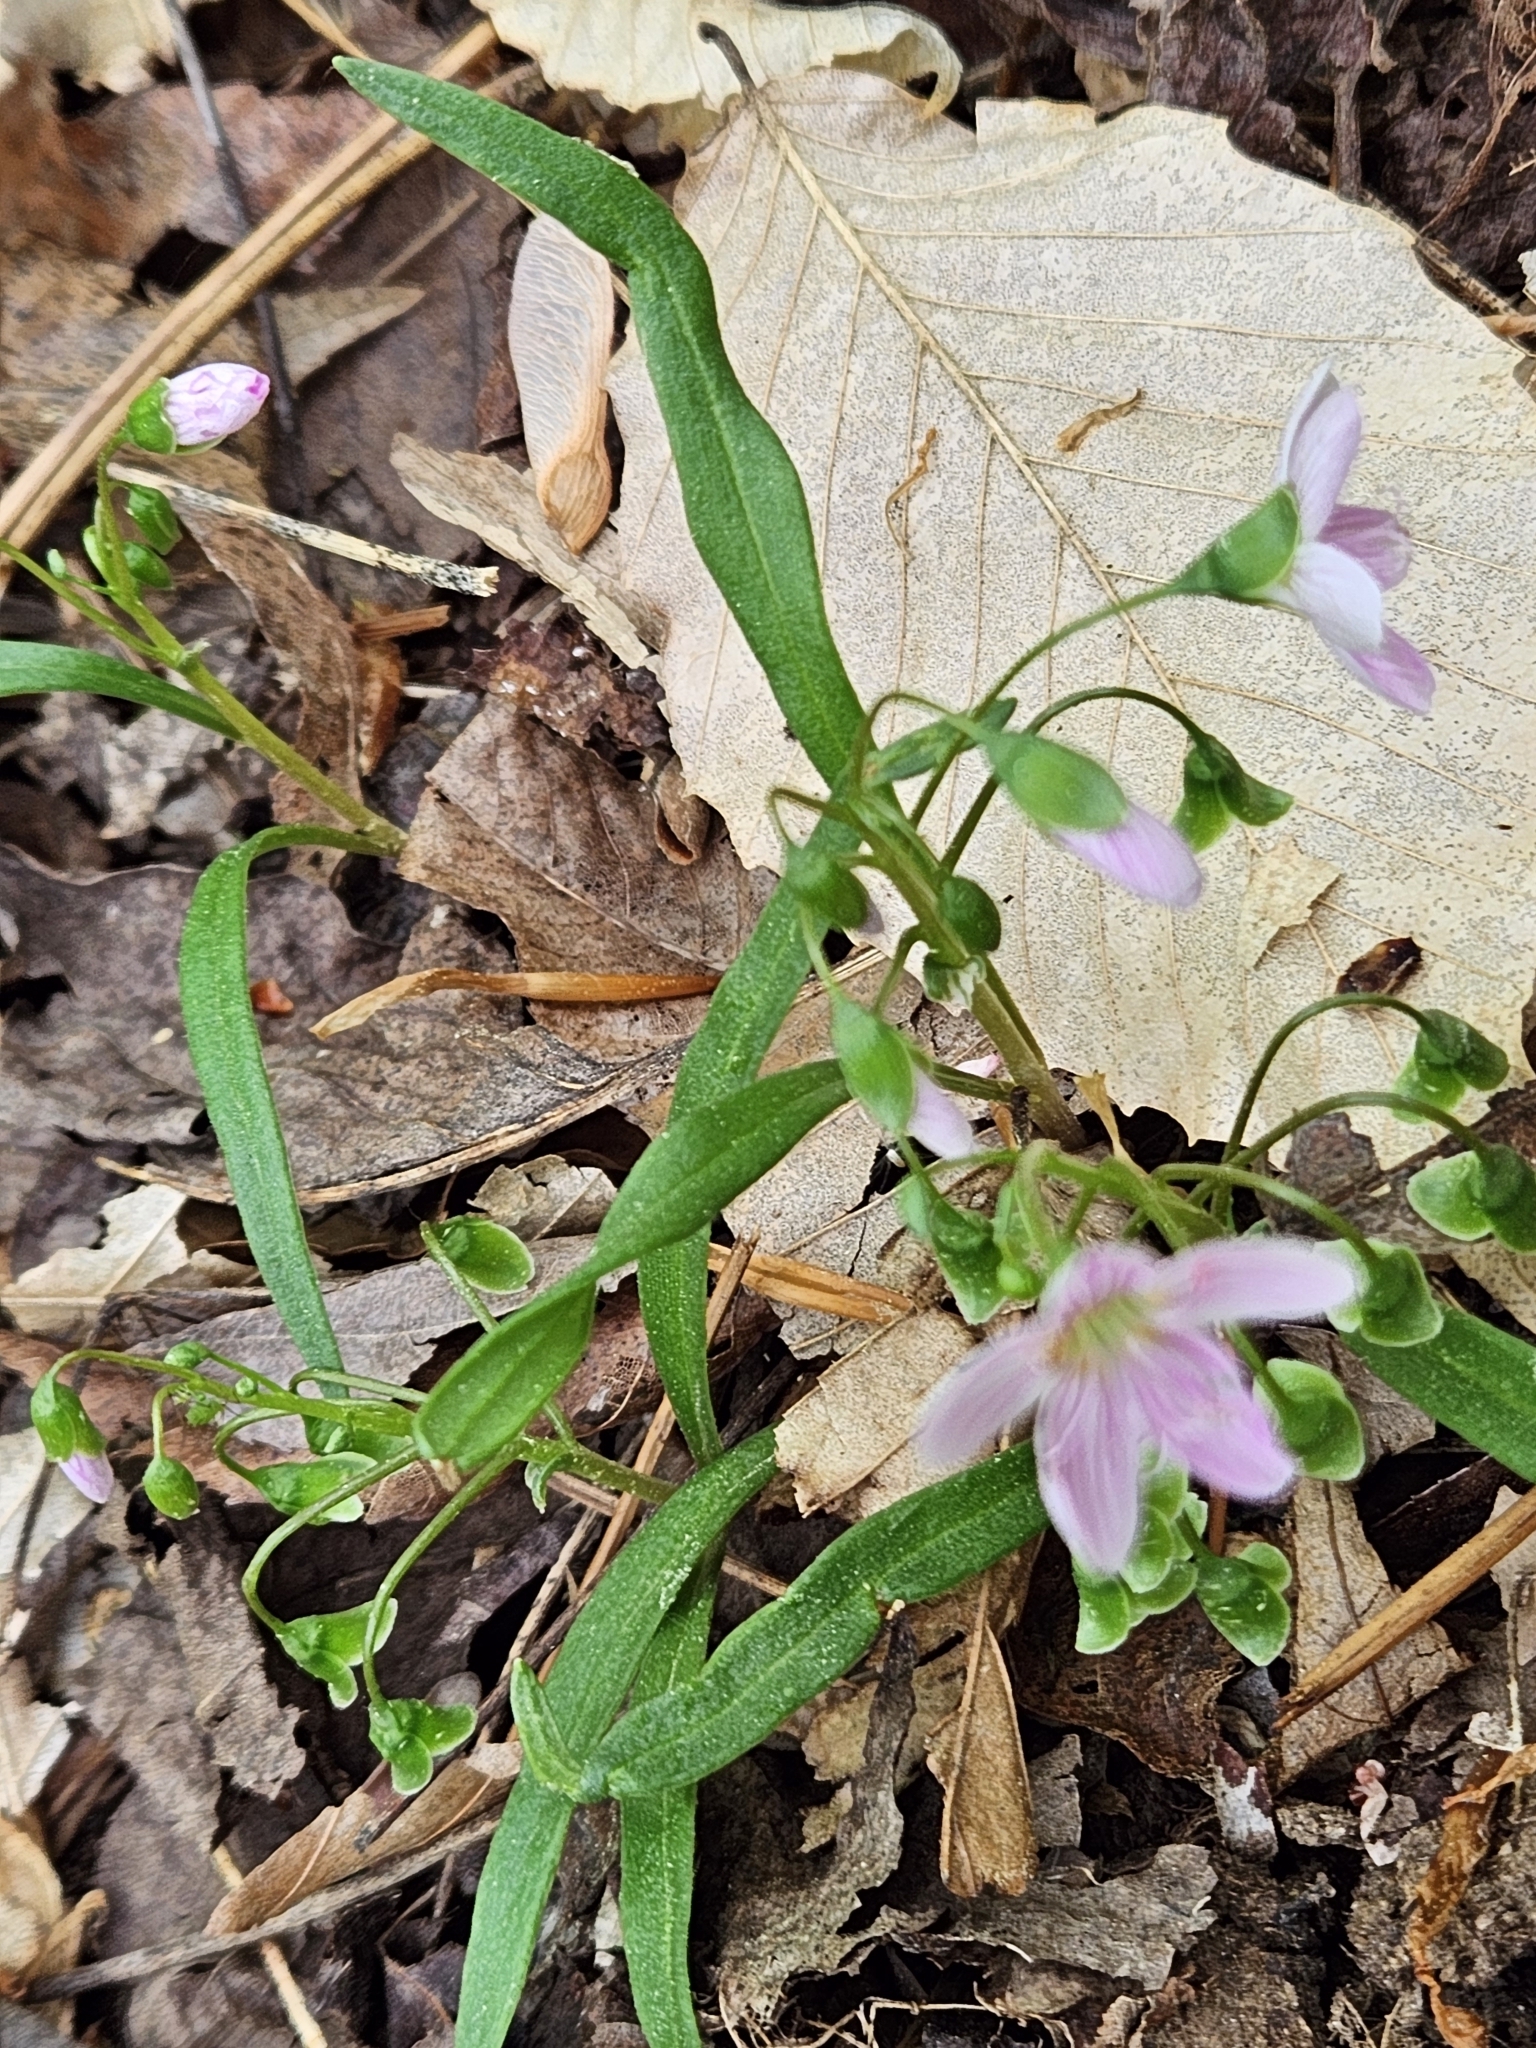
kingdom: Plantae
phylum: Tracheophyta
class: Magnoliopsida
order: Caryophyllales
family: Montiaceae
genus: Claytonia
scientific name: Claytonia virginica
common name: Virginia springbeauty
